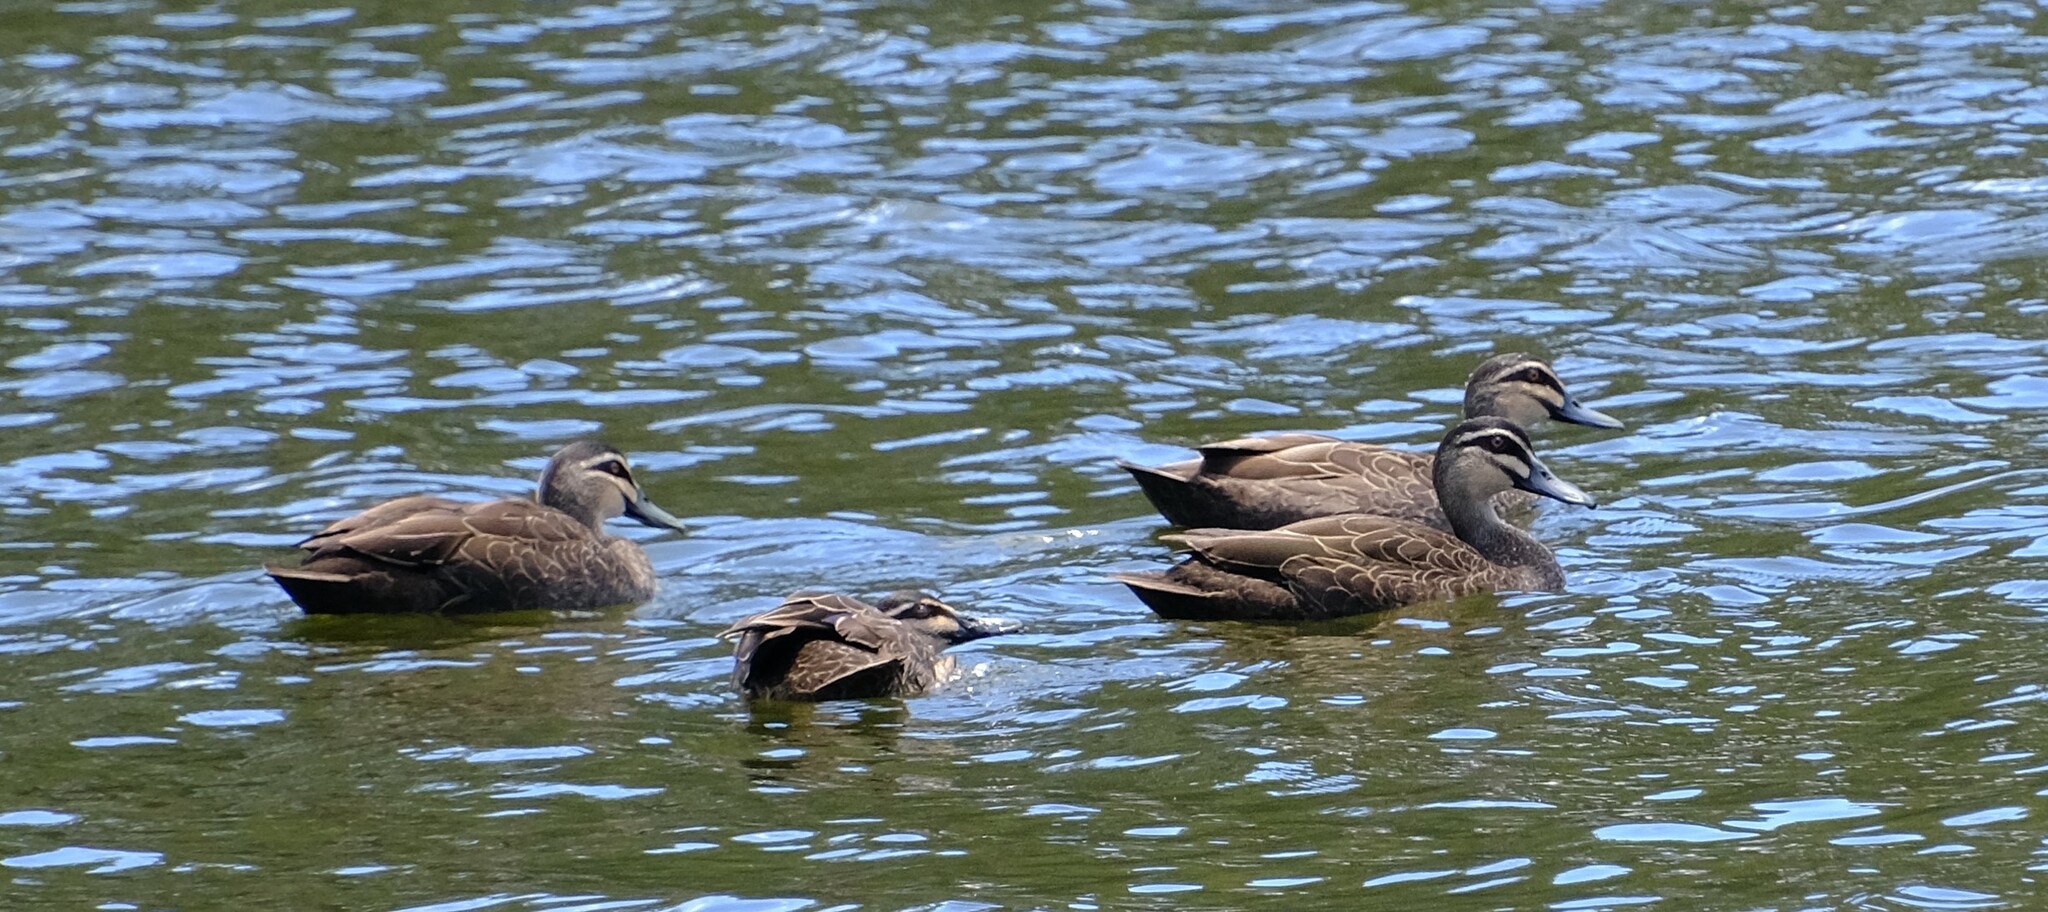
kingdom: Animalia
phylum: Chordata
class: Aves
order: Anseriformes
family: Anatidae
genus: Anas
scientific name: Anas superciliosa
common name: Pacific black duck
